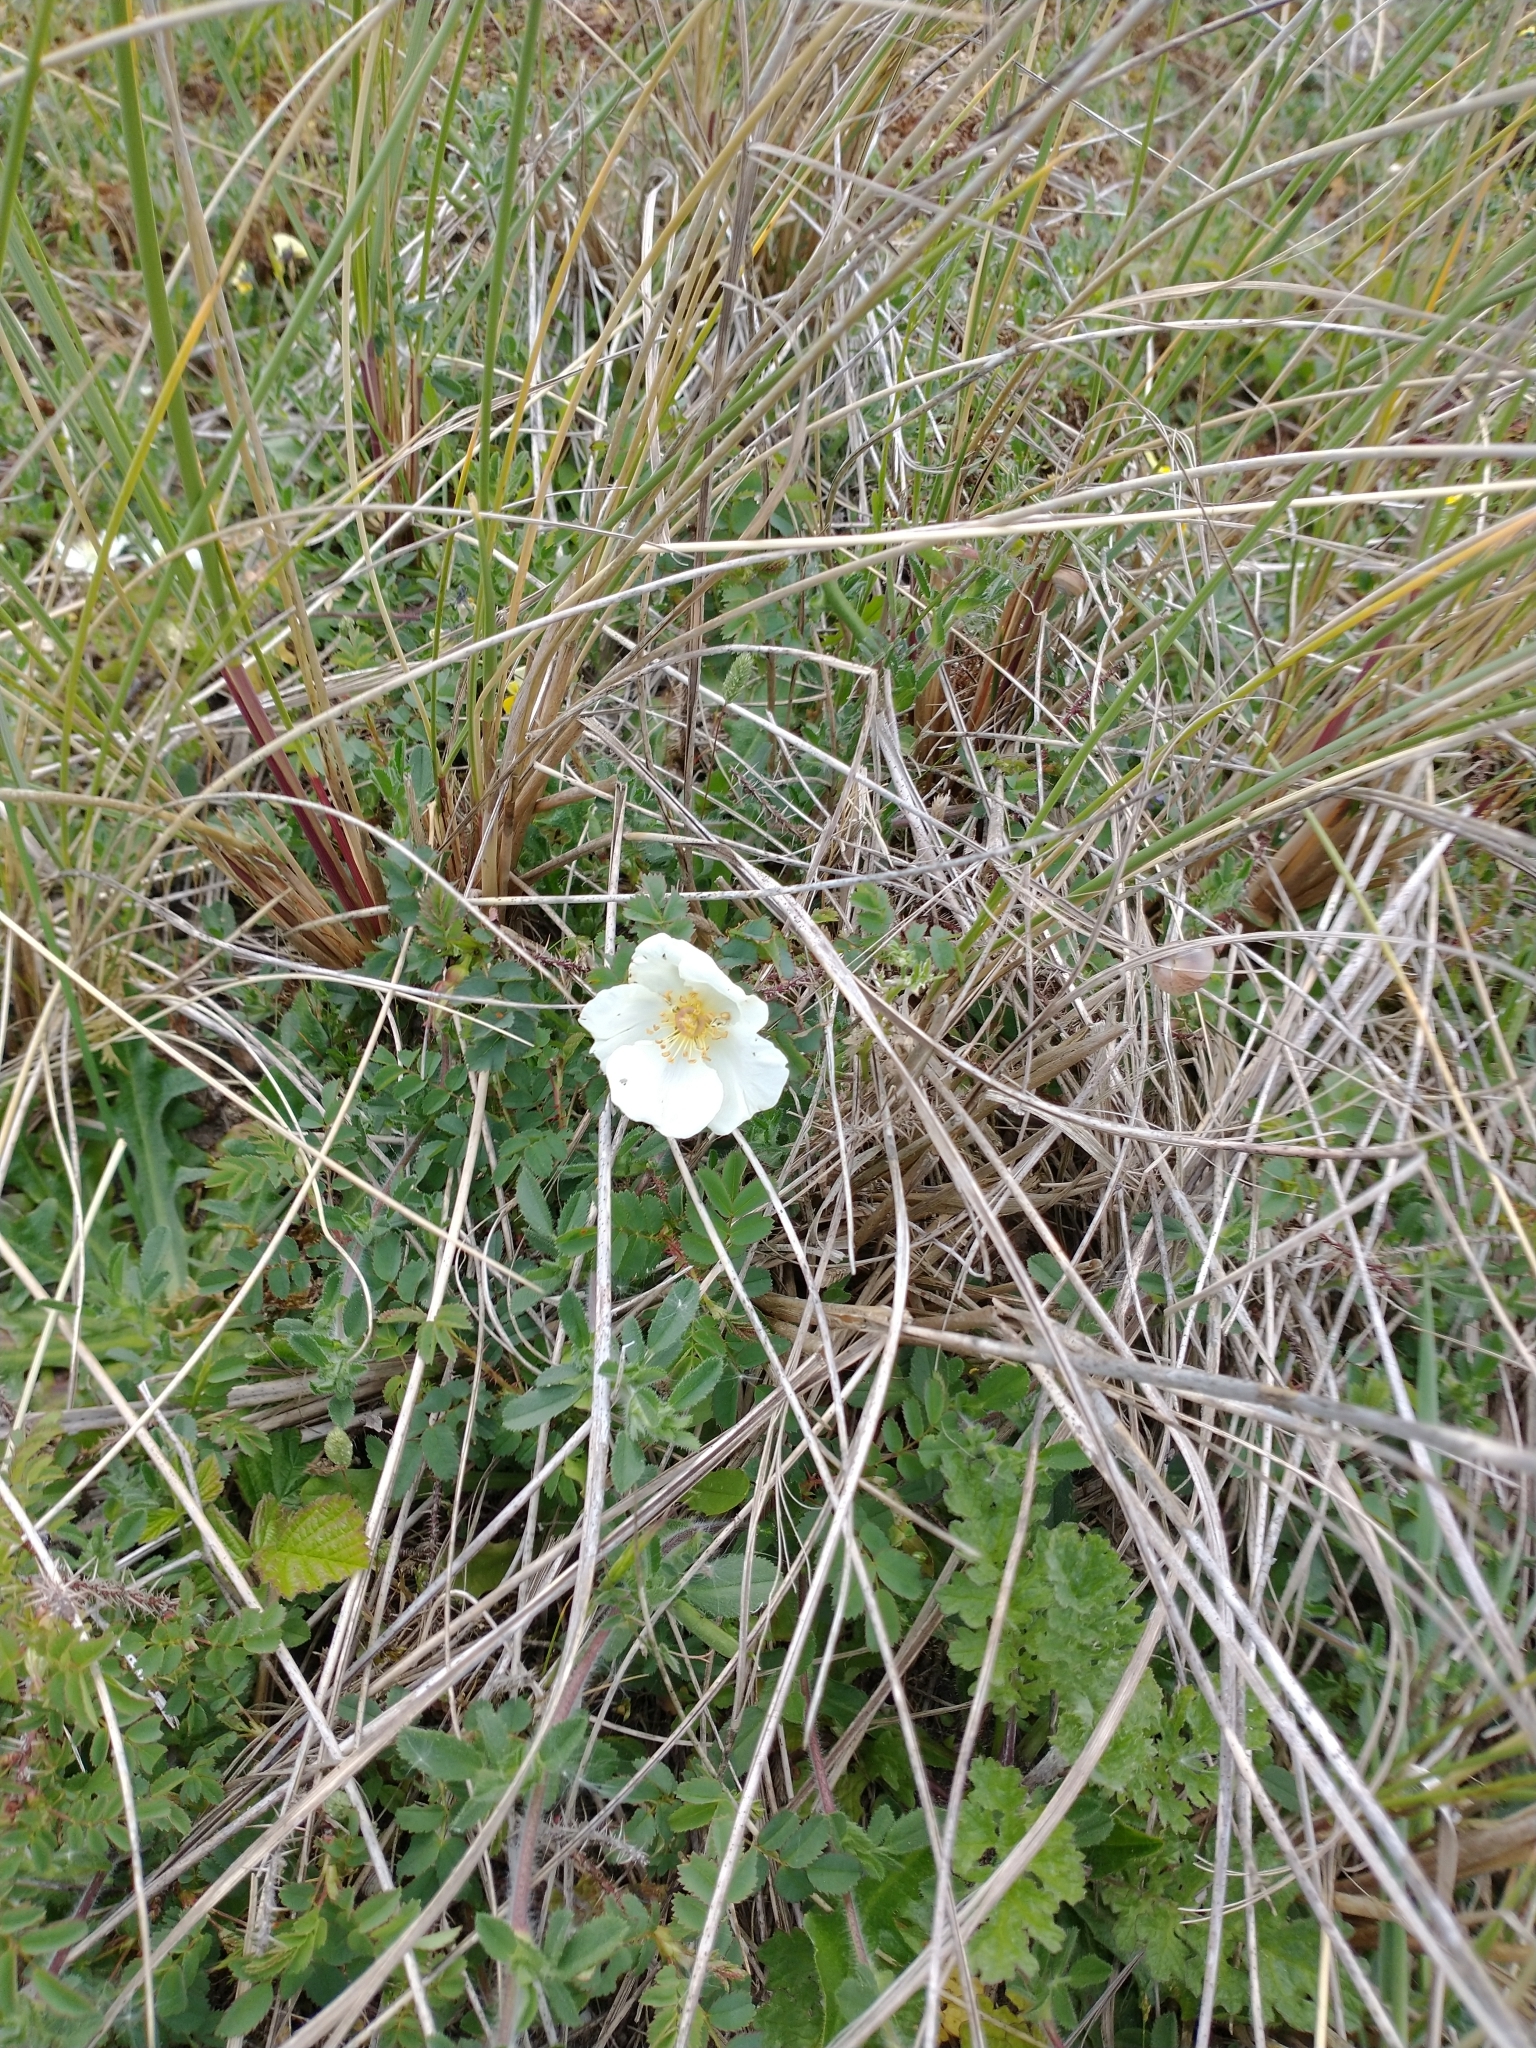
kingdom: Plantae
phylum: Tracheophyta
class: Magnoliopsida
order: Rosales
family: Rosaceae
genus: Rosa
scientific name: Rosa spinosissima
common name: Burnet rose
